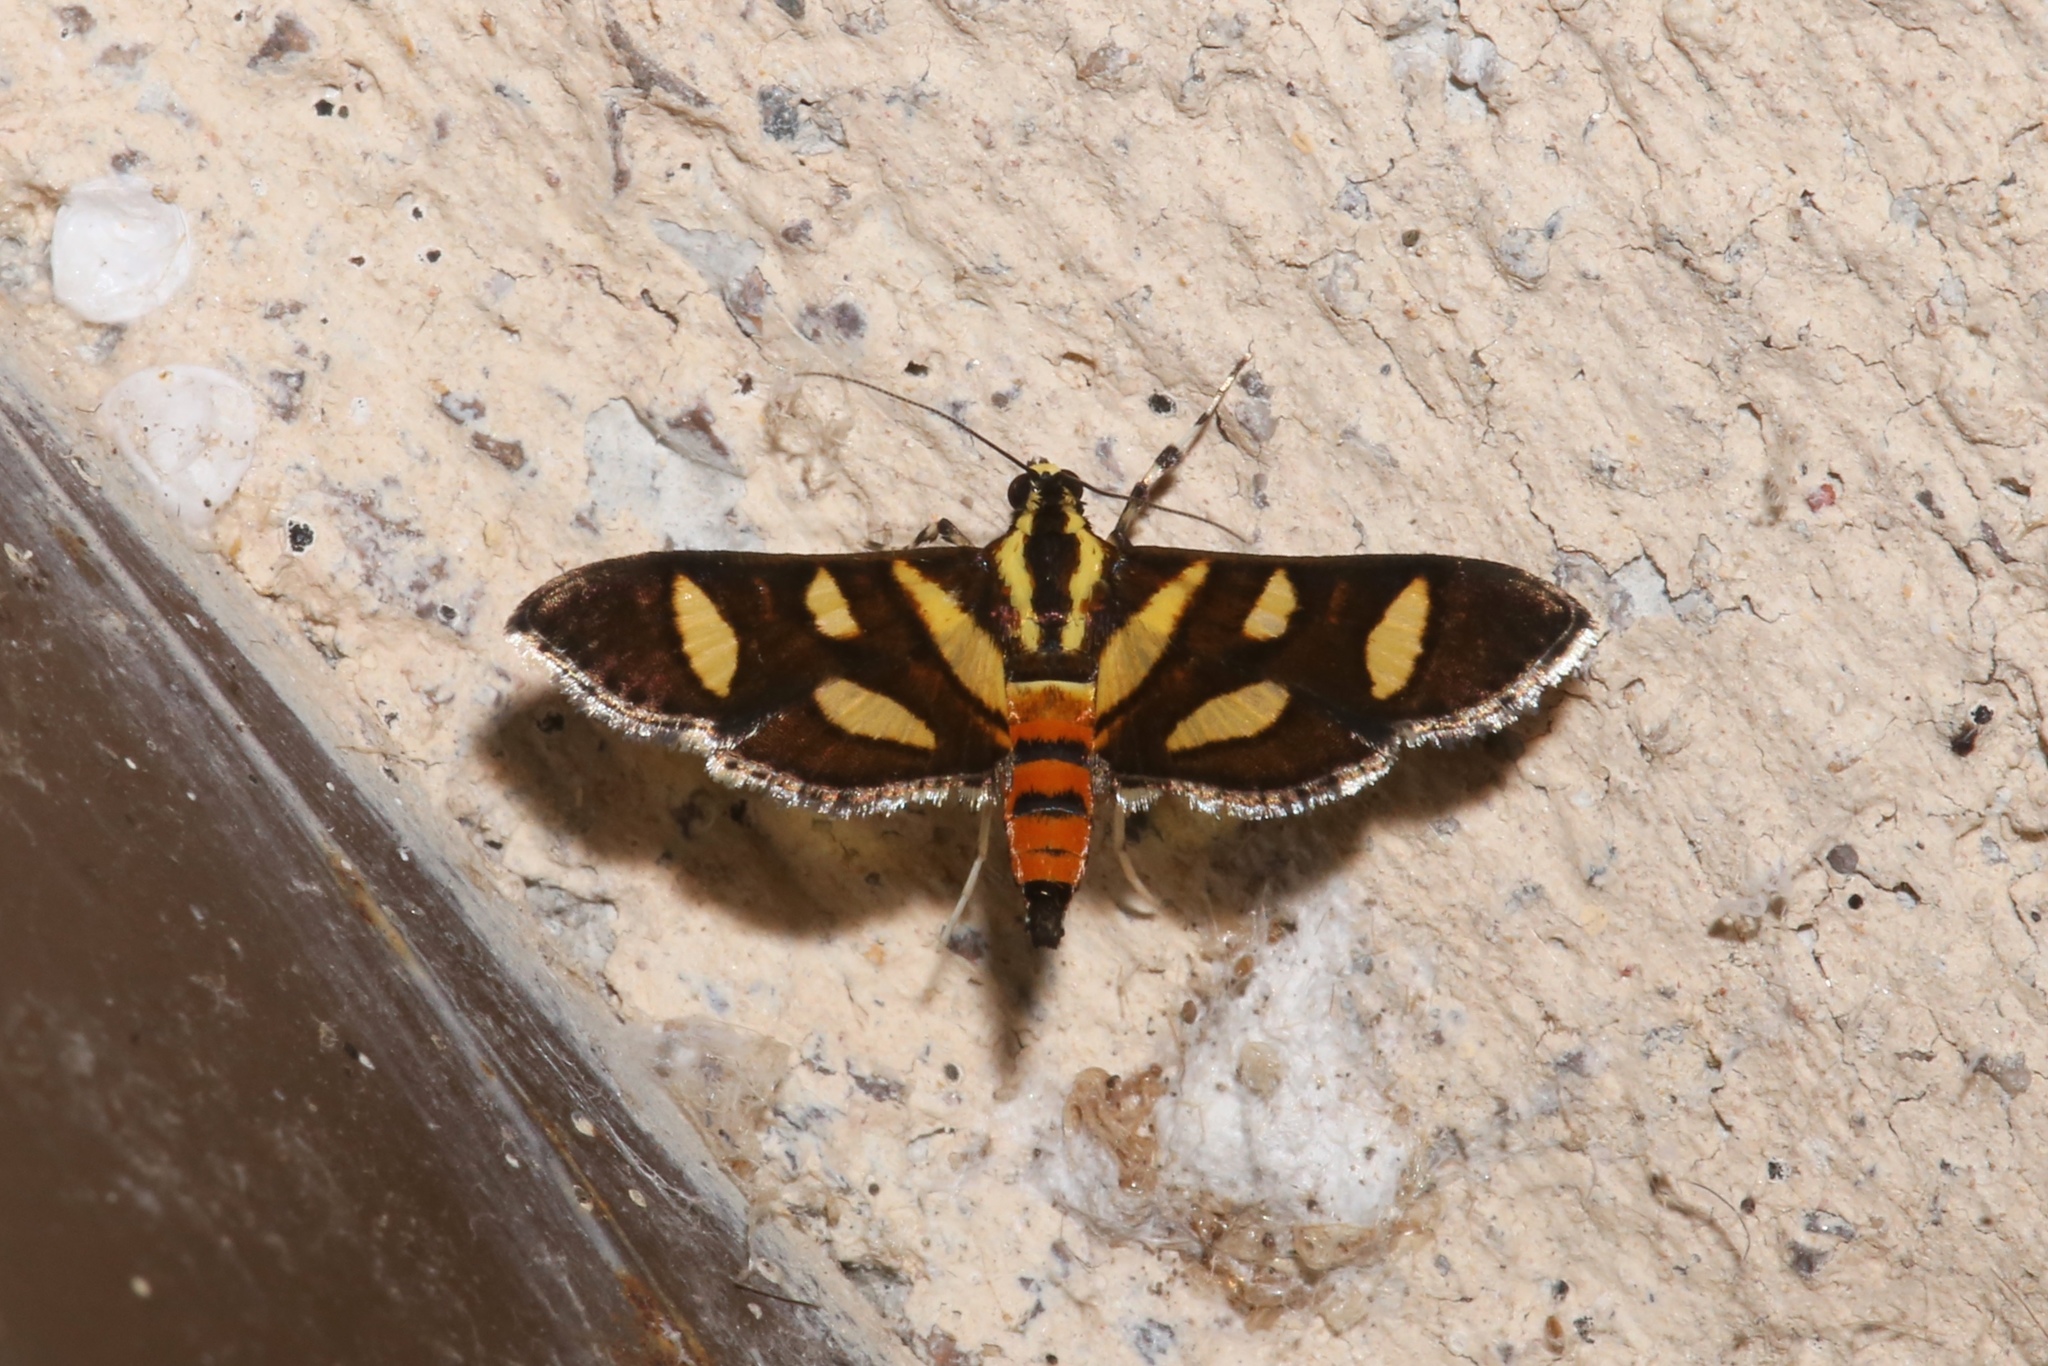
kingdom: Animalia
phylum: Arthropoda
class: Insecta
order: Lepidoptera
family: Crambidae
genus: Syngamia
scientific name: Syngamia florella
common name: Orange-spotted flower moth
